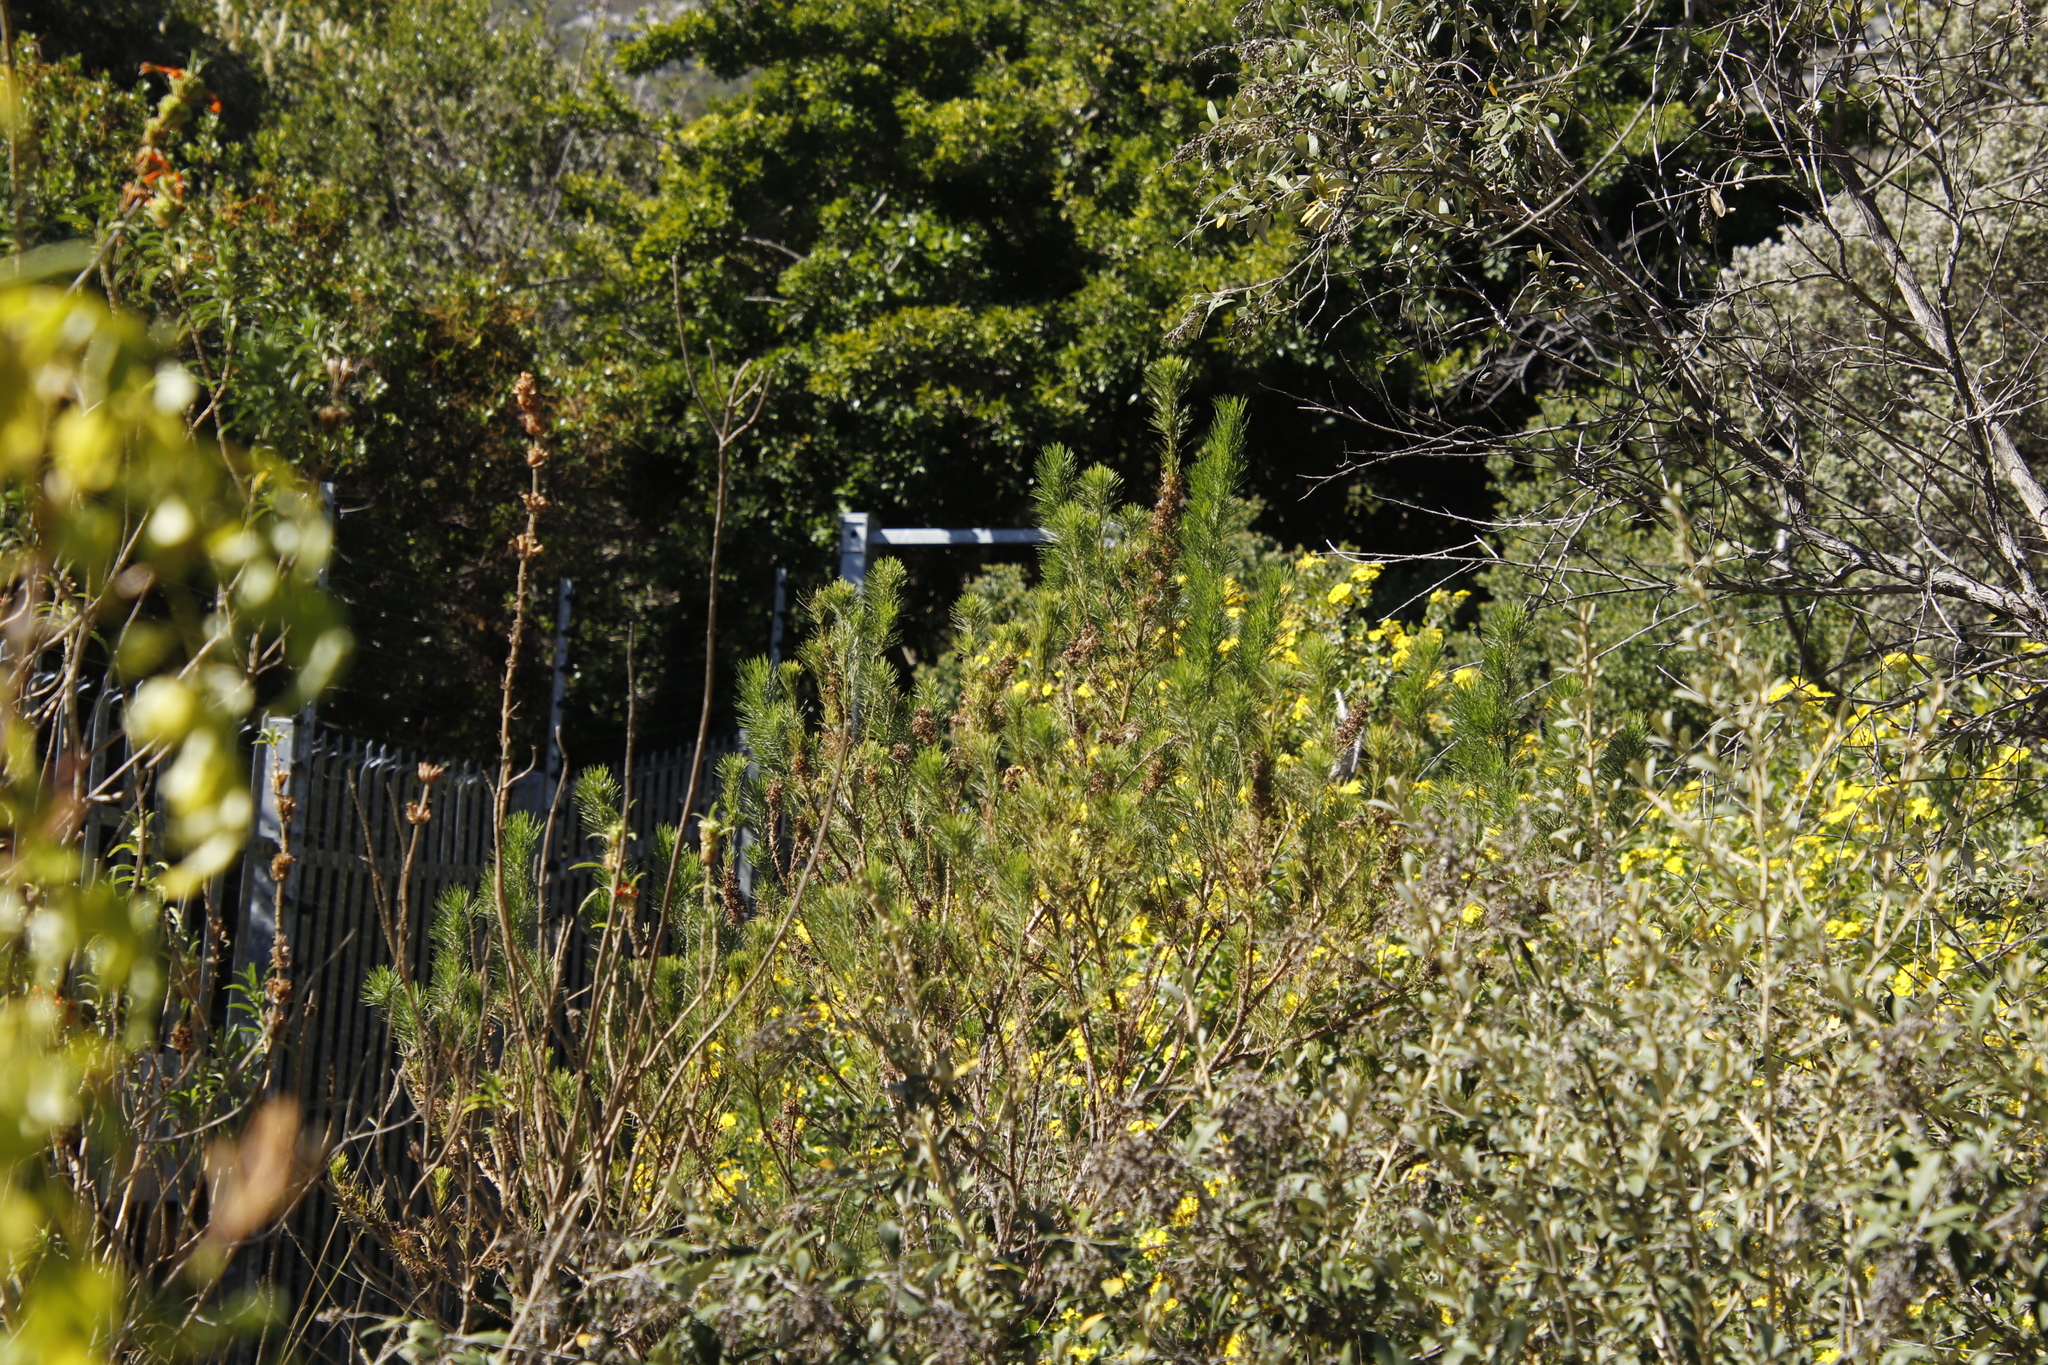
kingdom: Plantae
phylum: Tracheophyta
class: Magnoliopsida
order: Fabales
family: Fabaceae
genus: Psoralea
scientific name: Psoralea pinnata
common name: African scurfpea
